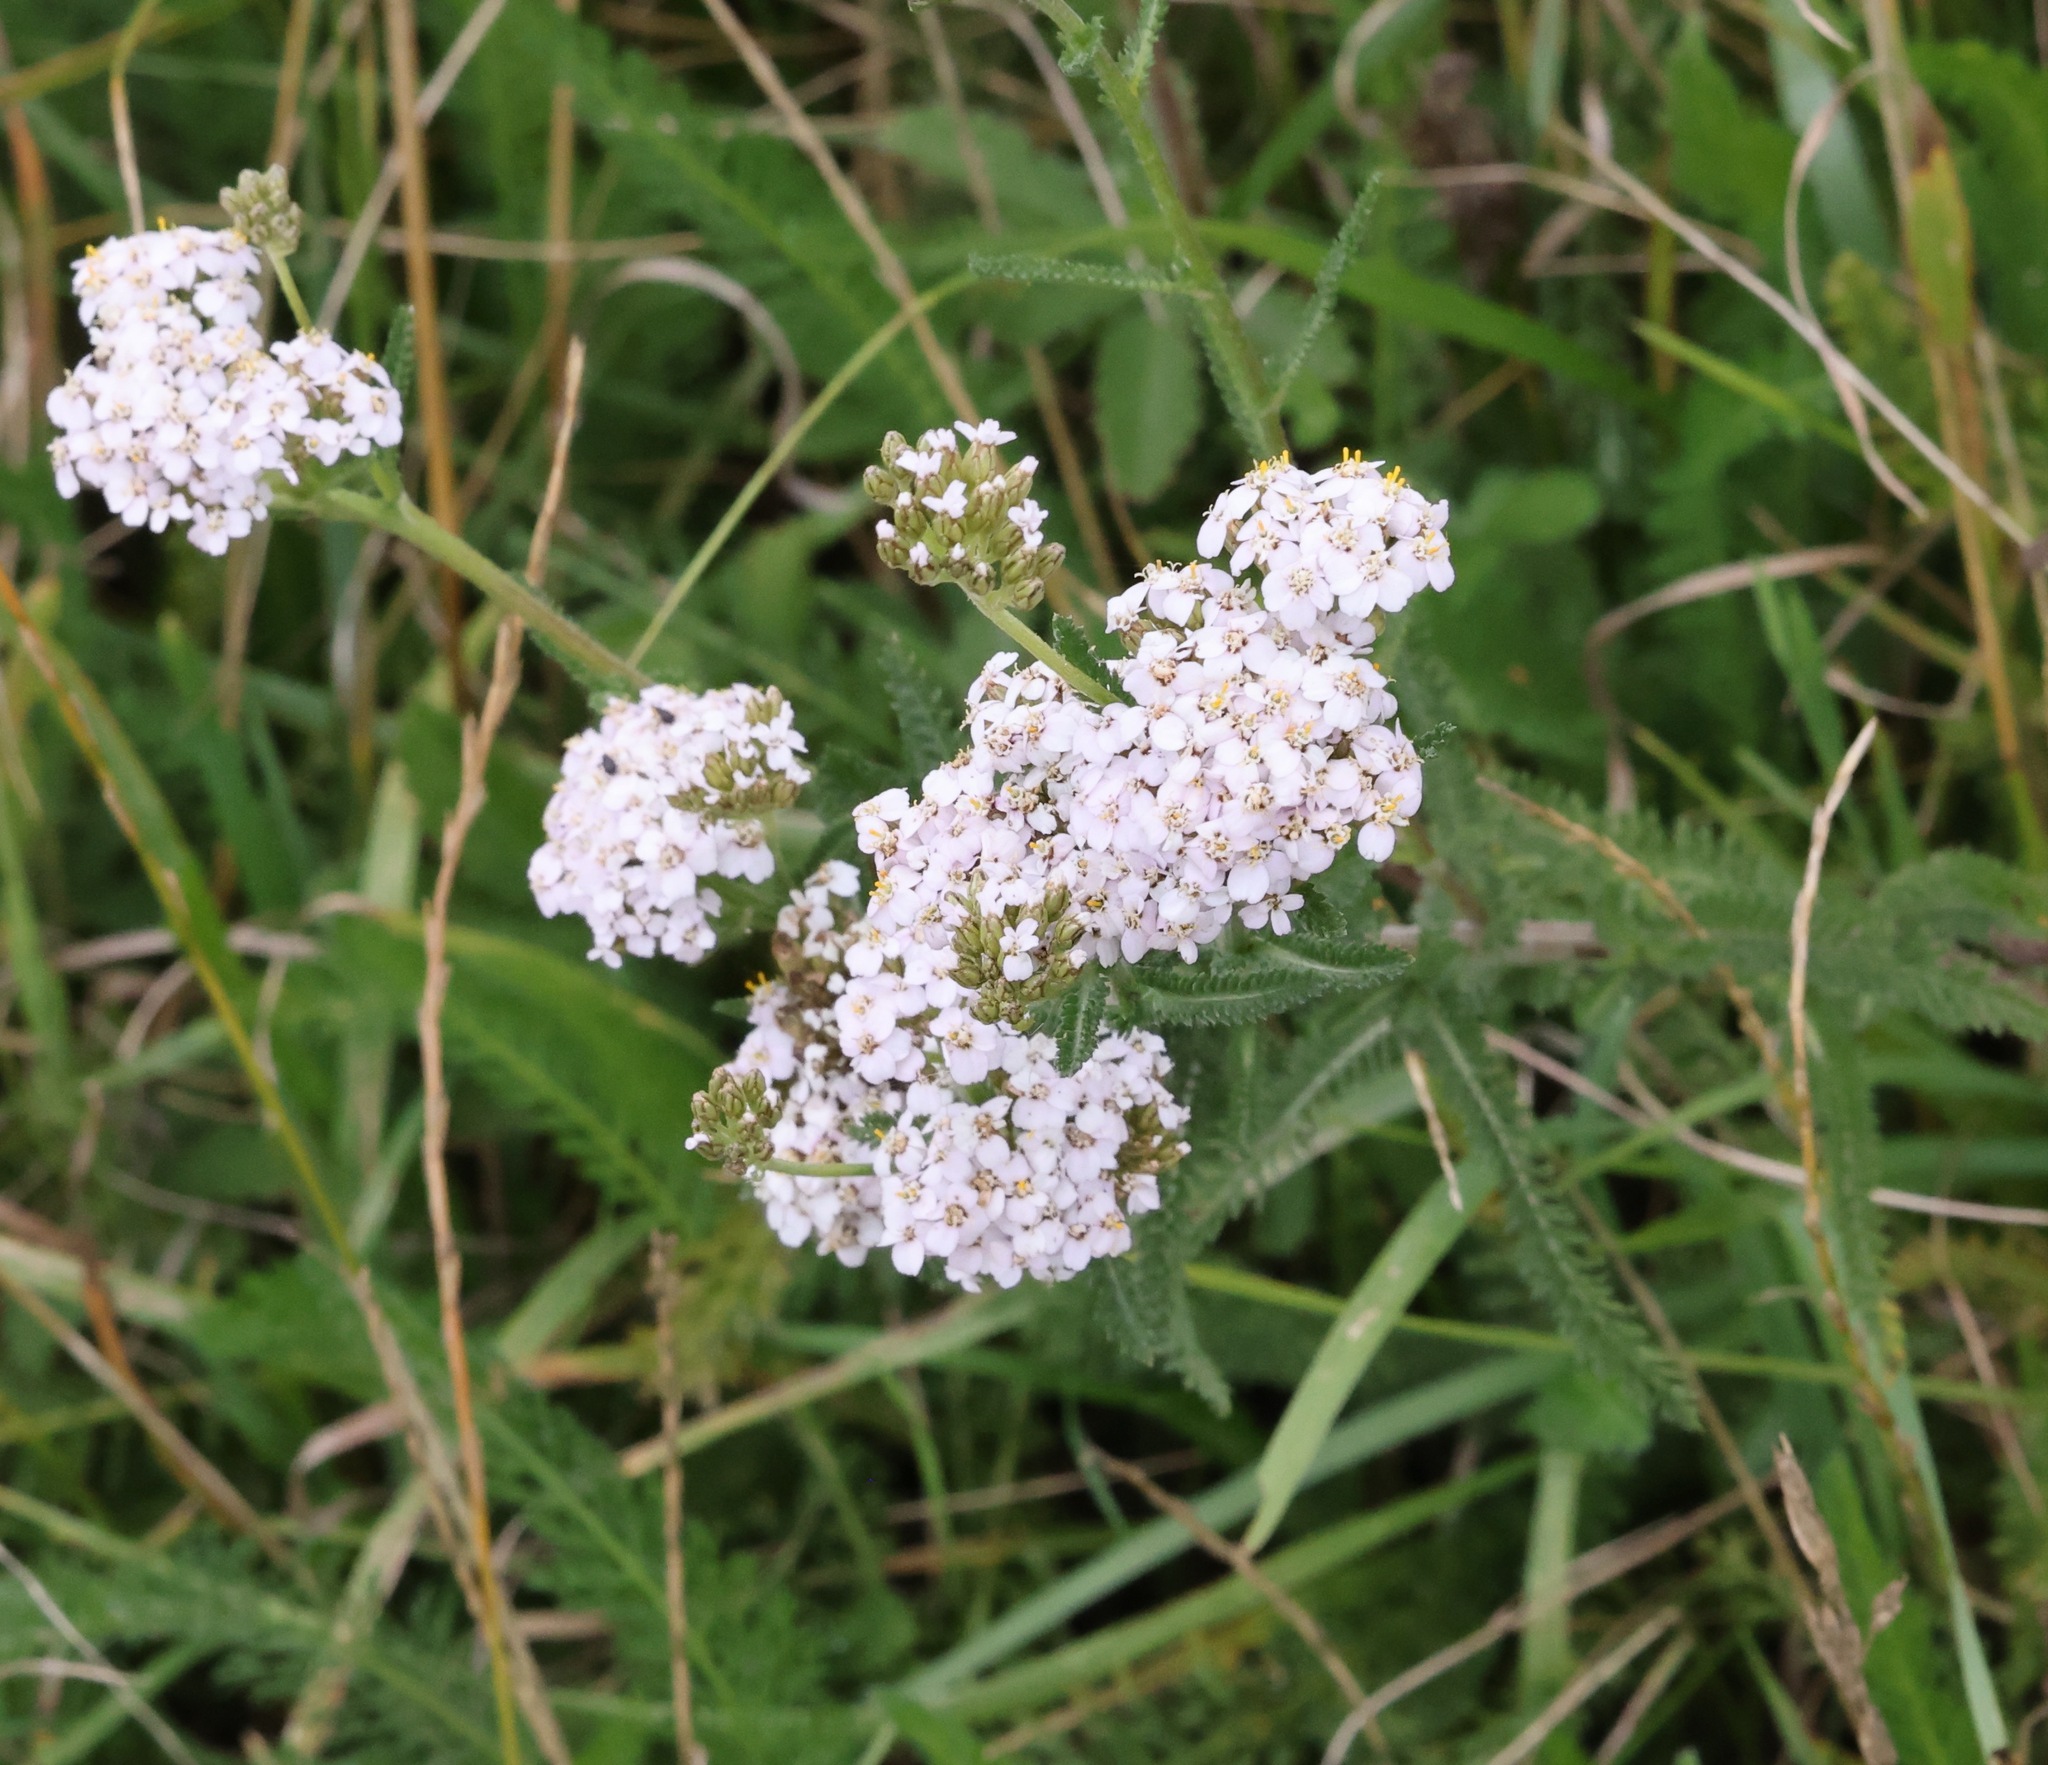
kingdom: Plantae
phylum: Tracheophyta
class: Magnoliopsida
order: Asterales
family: Asteraceae
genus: Achillea
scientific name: Achillea millefolium
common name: Yarrow
